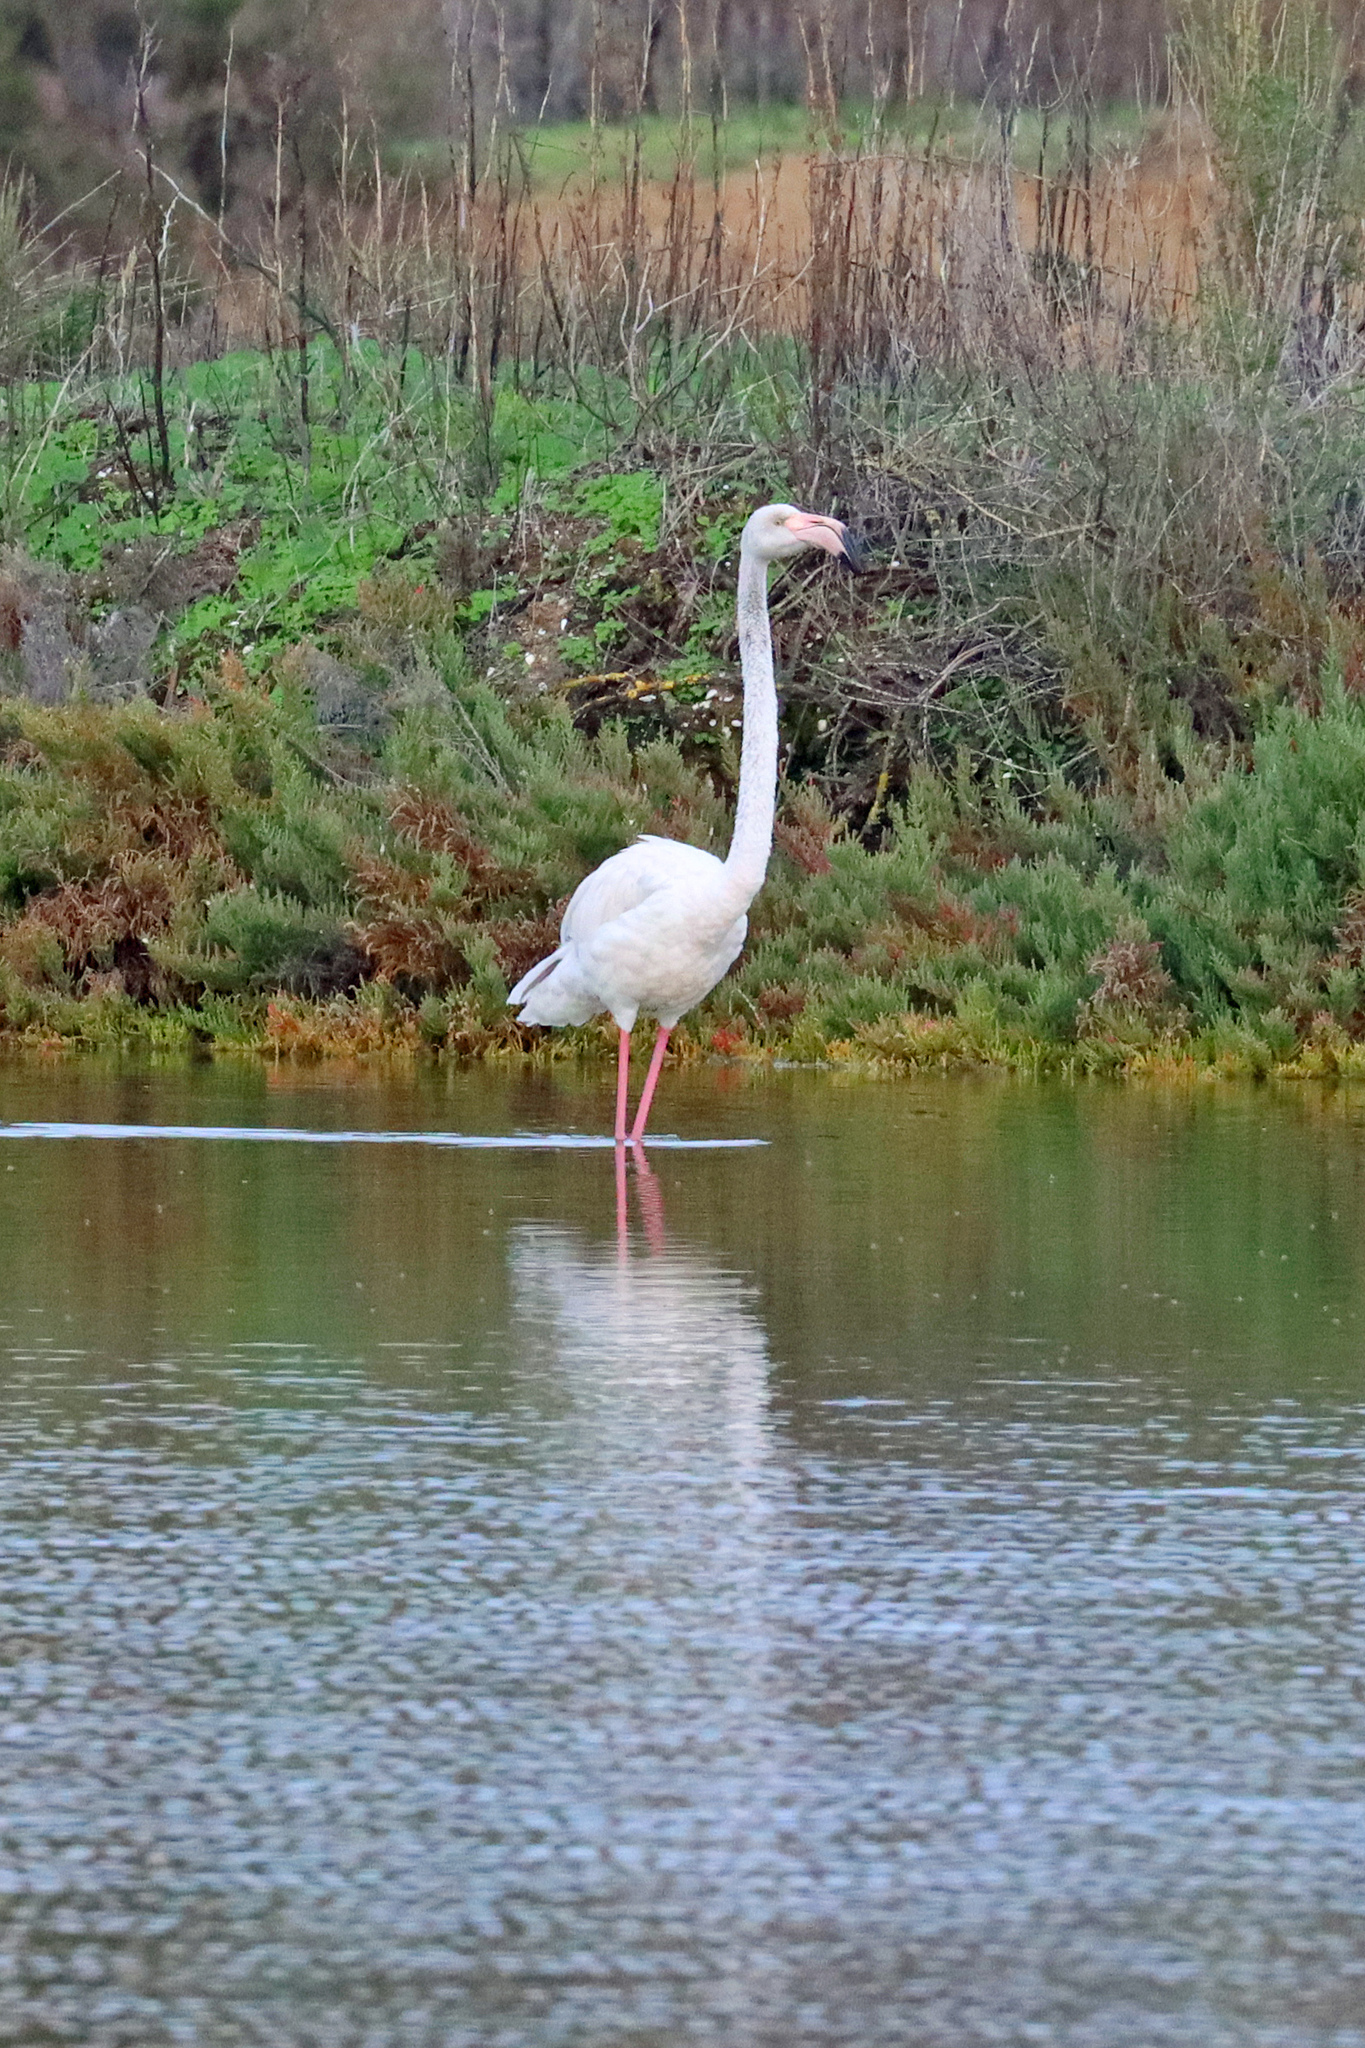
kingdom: Animalia
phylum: Chordata
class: Aves
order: Phoenicopteriformes
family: Phoenicopteridae
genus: Phoenicopterus
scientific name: Phoenicopterus roseus
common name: Greater flamingo
